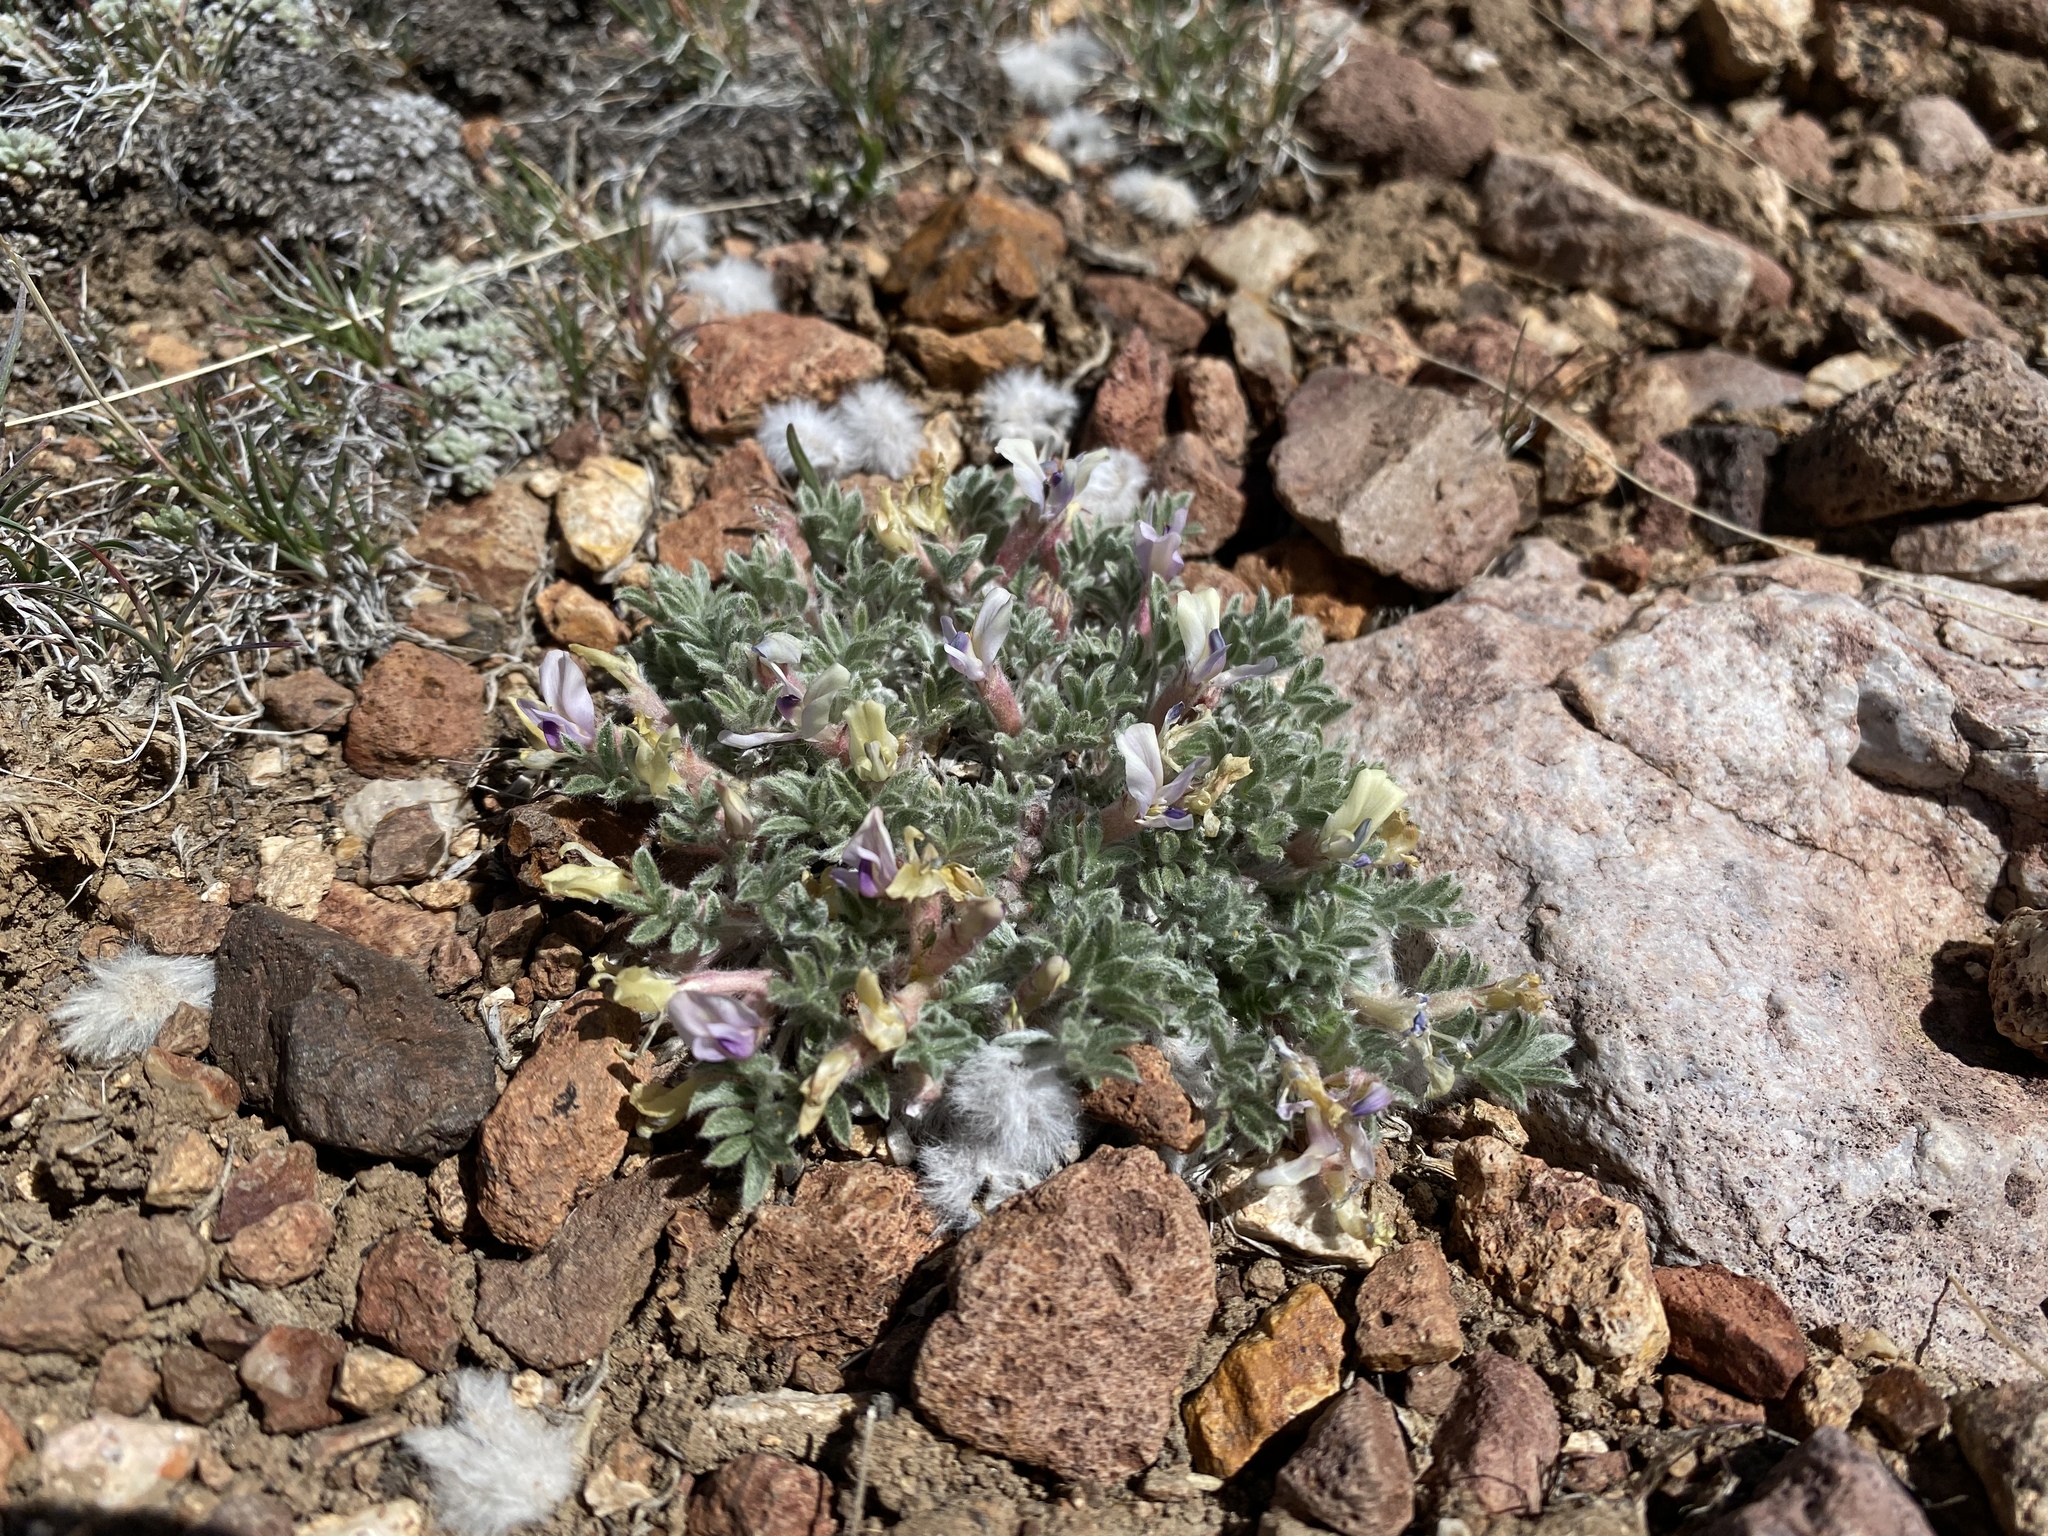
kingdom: Plantae
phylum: Tracheophyta
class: Magnoliopsida
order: Fabales
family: Fabaceae
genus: Astragalus
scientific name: Astragalus purshii
